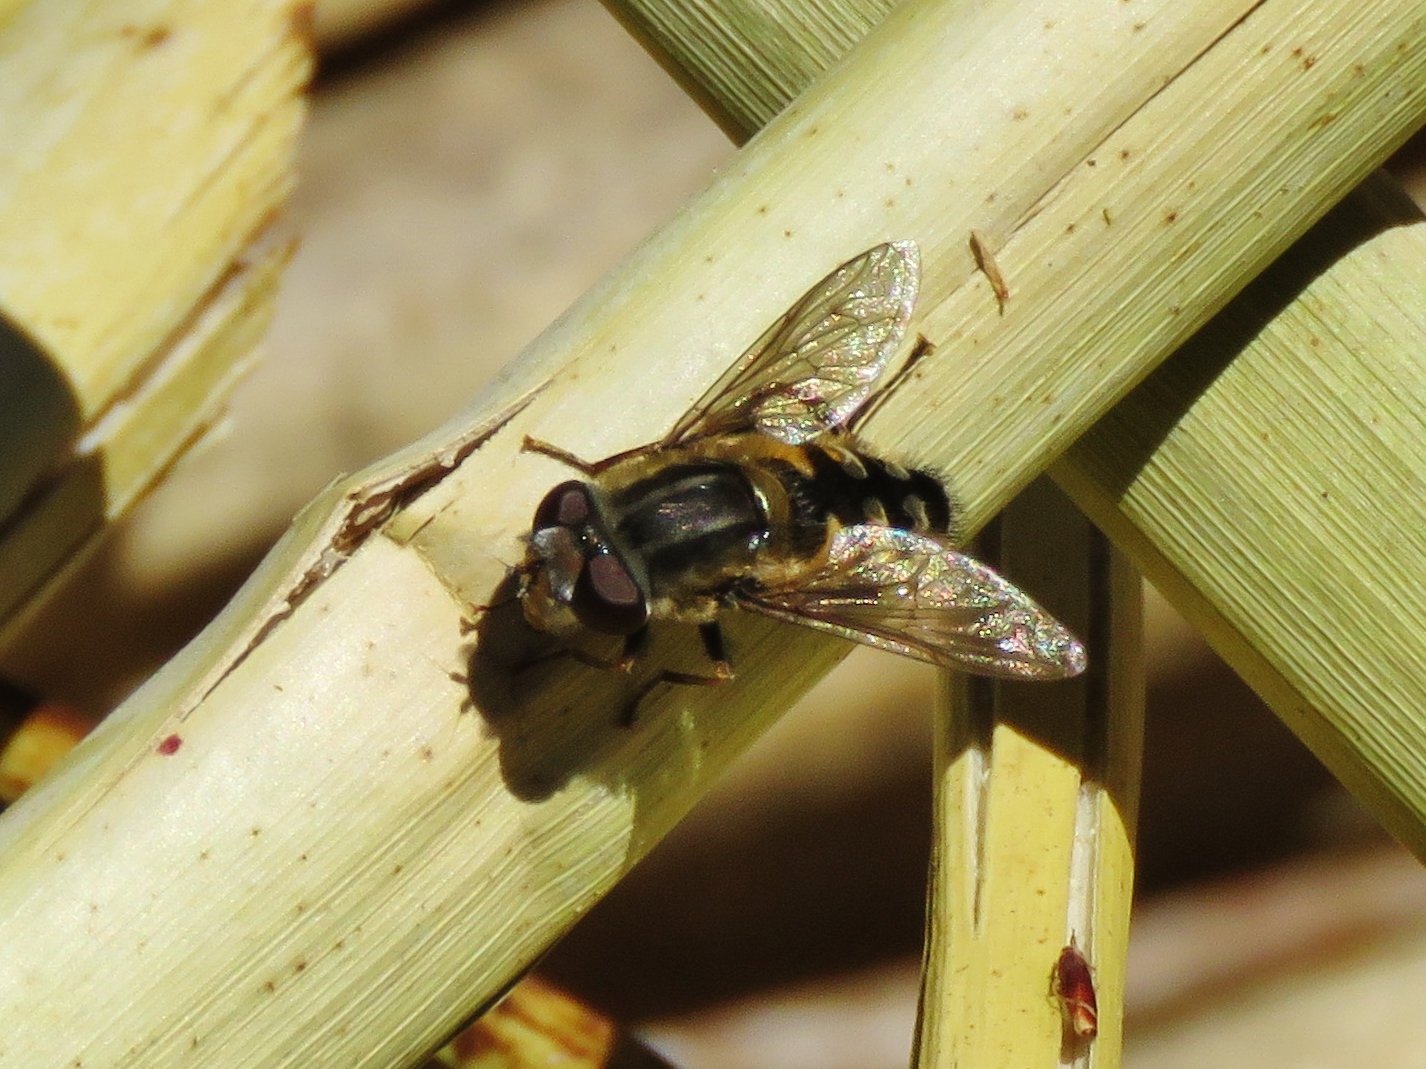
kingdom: Animalia
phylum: Arthropoda
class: Insecta
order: Diptera
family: Syrphidae
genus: Dolichogyna
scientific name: Dolichogyna abrupta
